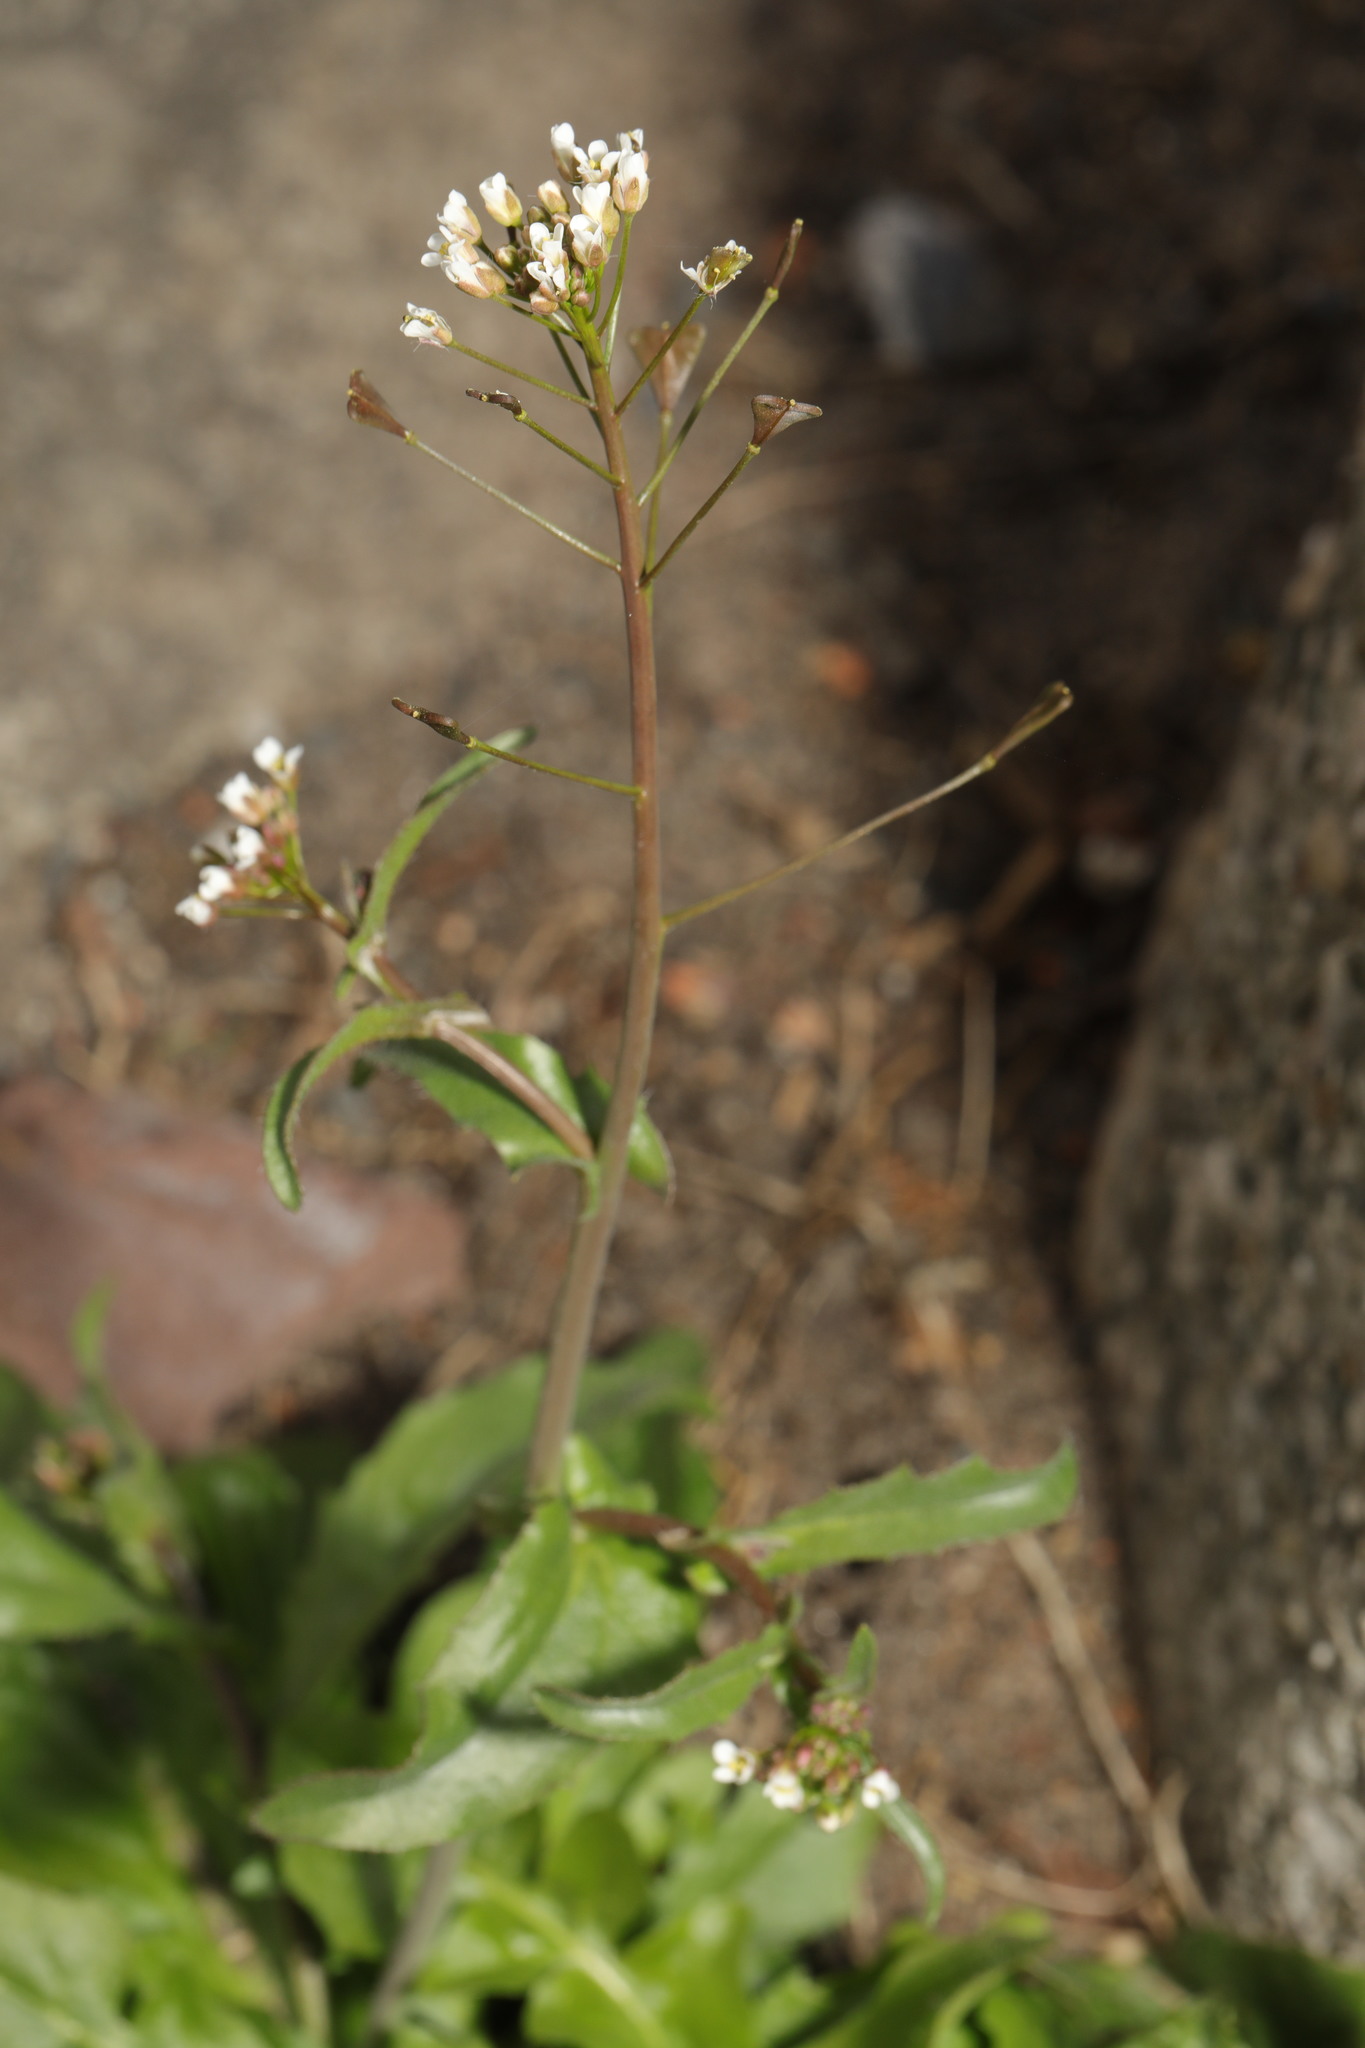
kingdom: Plantae
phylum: Tracheophyta
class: Magnoliopsida
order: Brassicales
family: Brassicaceae
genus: Capsella
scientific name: Capsella bursa-pastoris
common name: Shepherd's purse
